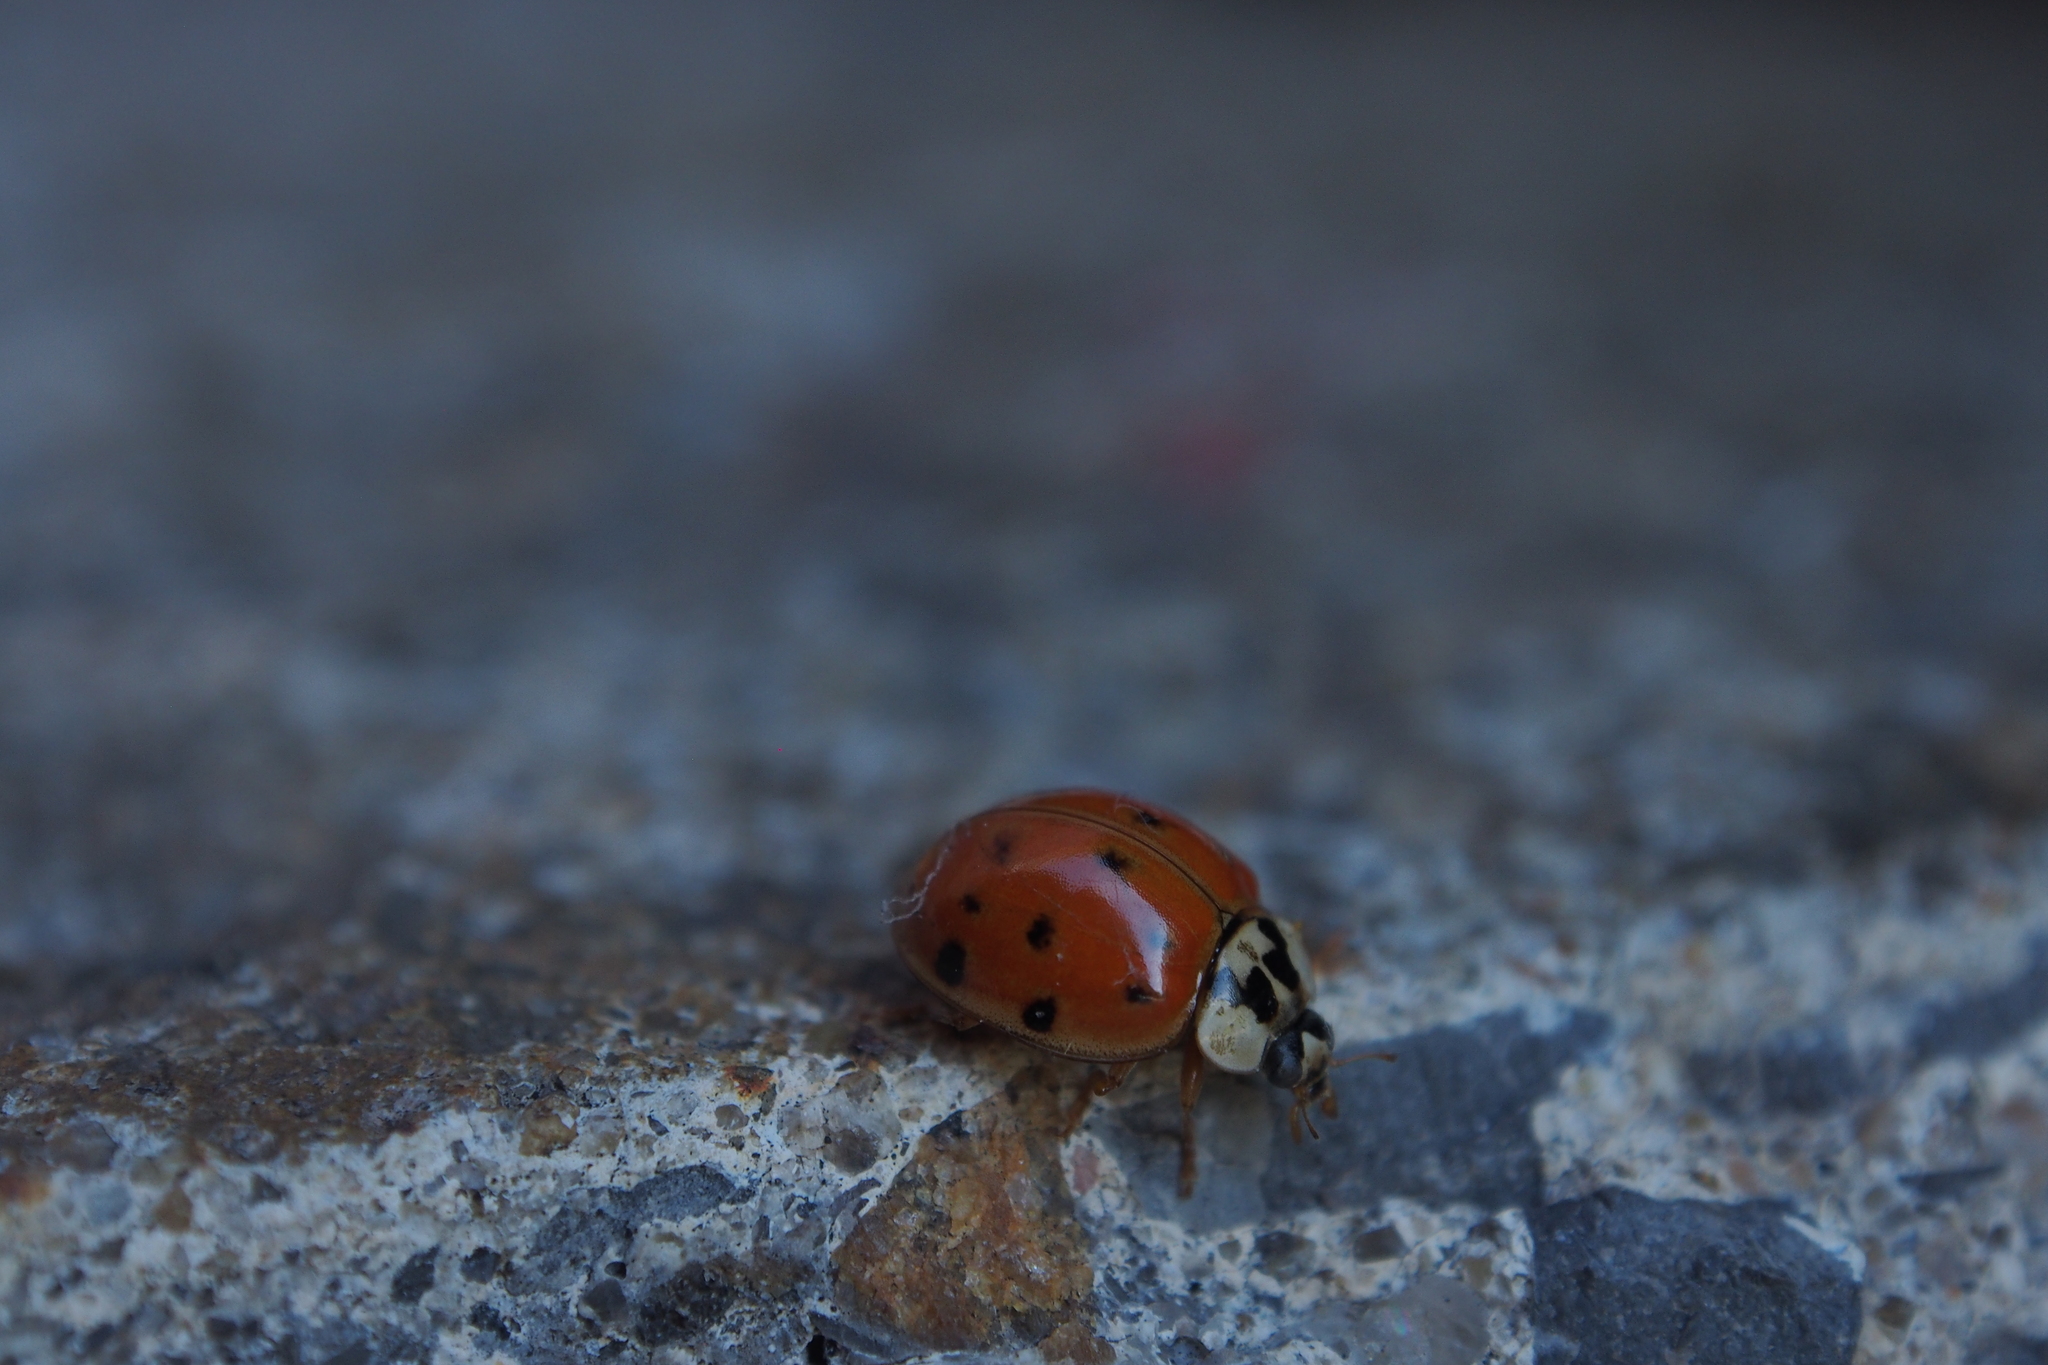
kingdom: Animalia
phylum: Arthropoda
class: Insecta
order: Coleoptera
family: Coccinellidae
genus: Harmonia
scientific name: Harmonia axyridis
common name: Harlequin ladybird
